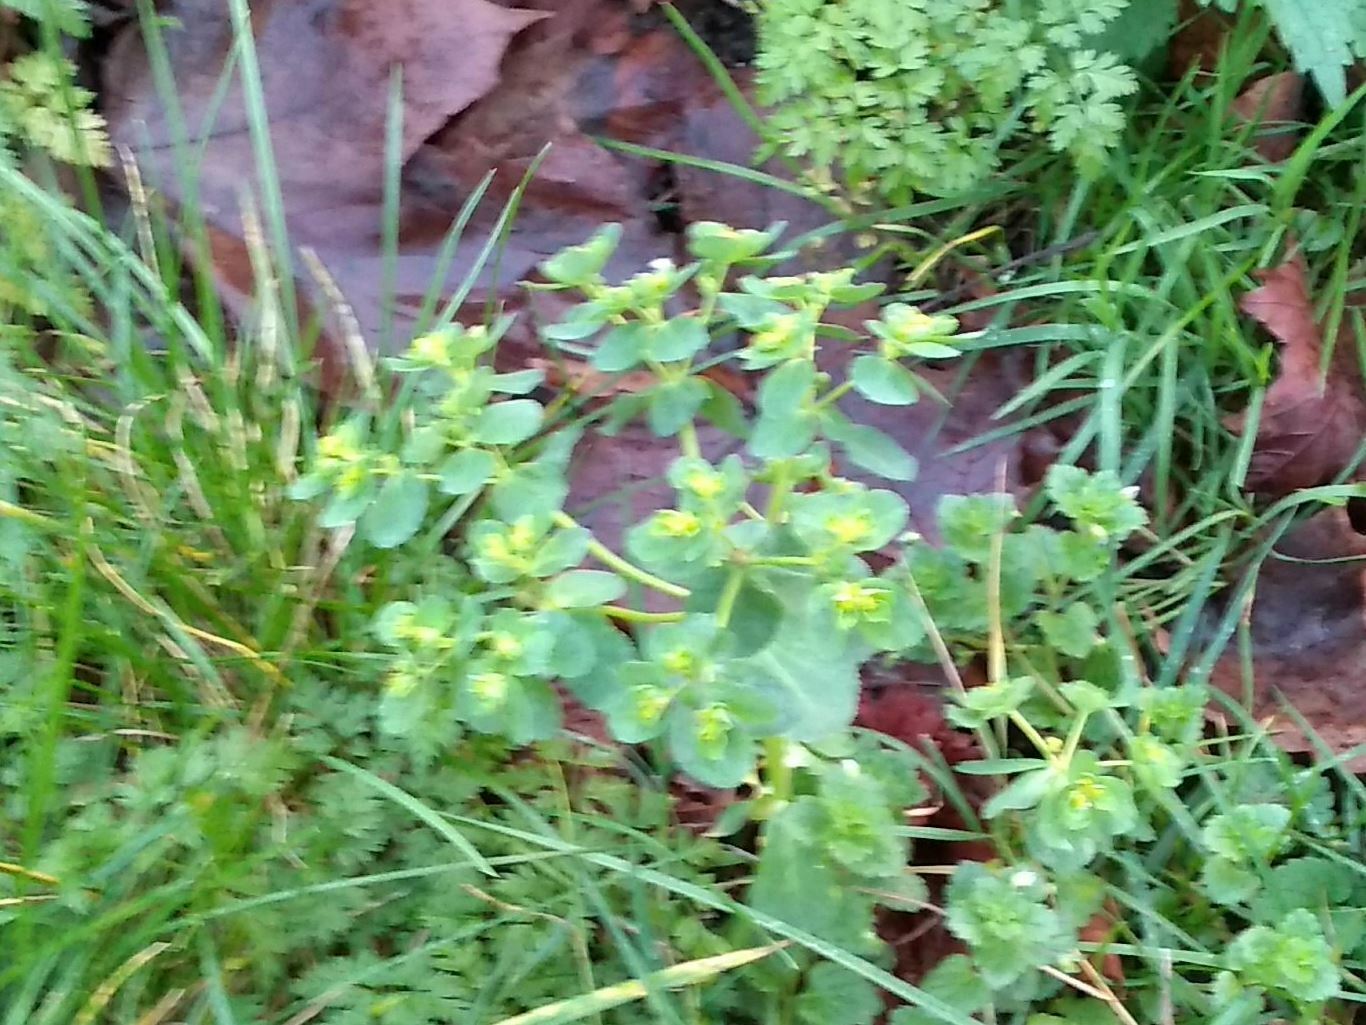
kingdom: Plantae
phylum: Tracheophyta
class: Magnoliopsida
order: Malpighiales
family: Euphorbiaceae
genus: Euphorbia
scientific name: Euphorbia helioscopia
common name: Sun spurge
